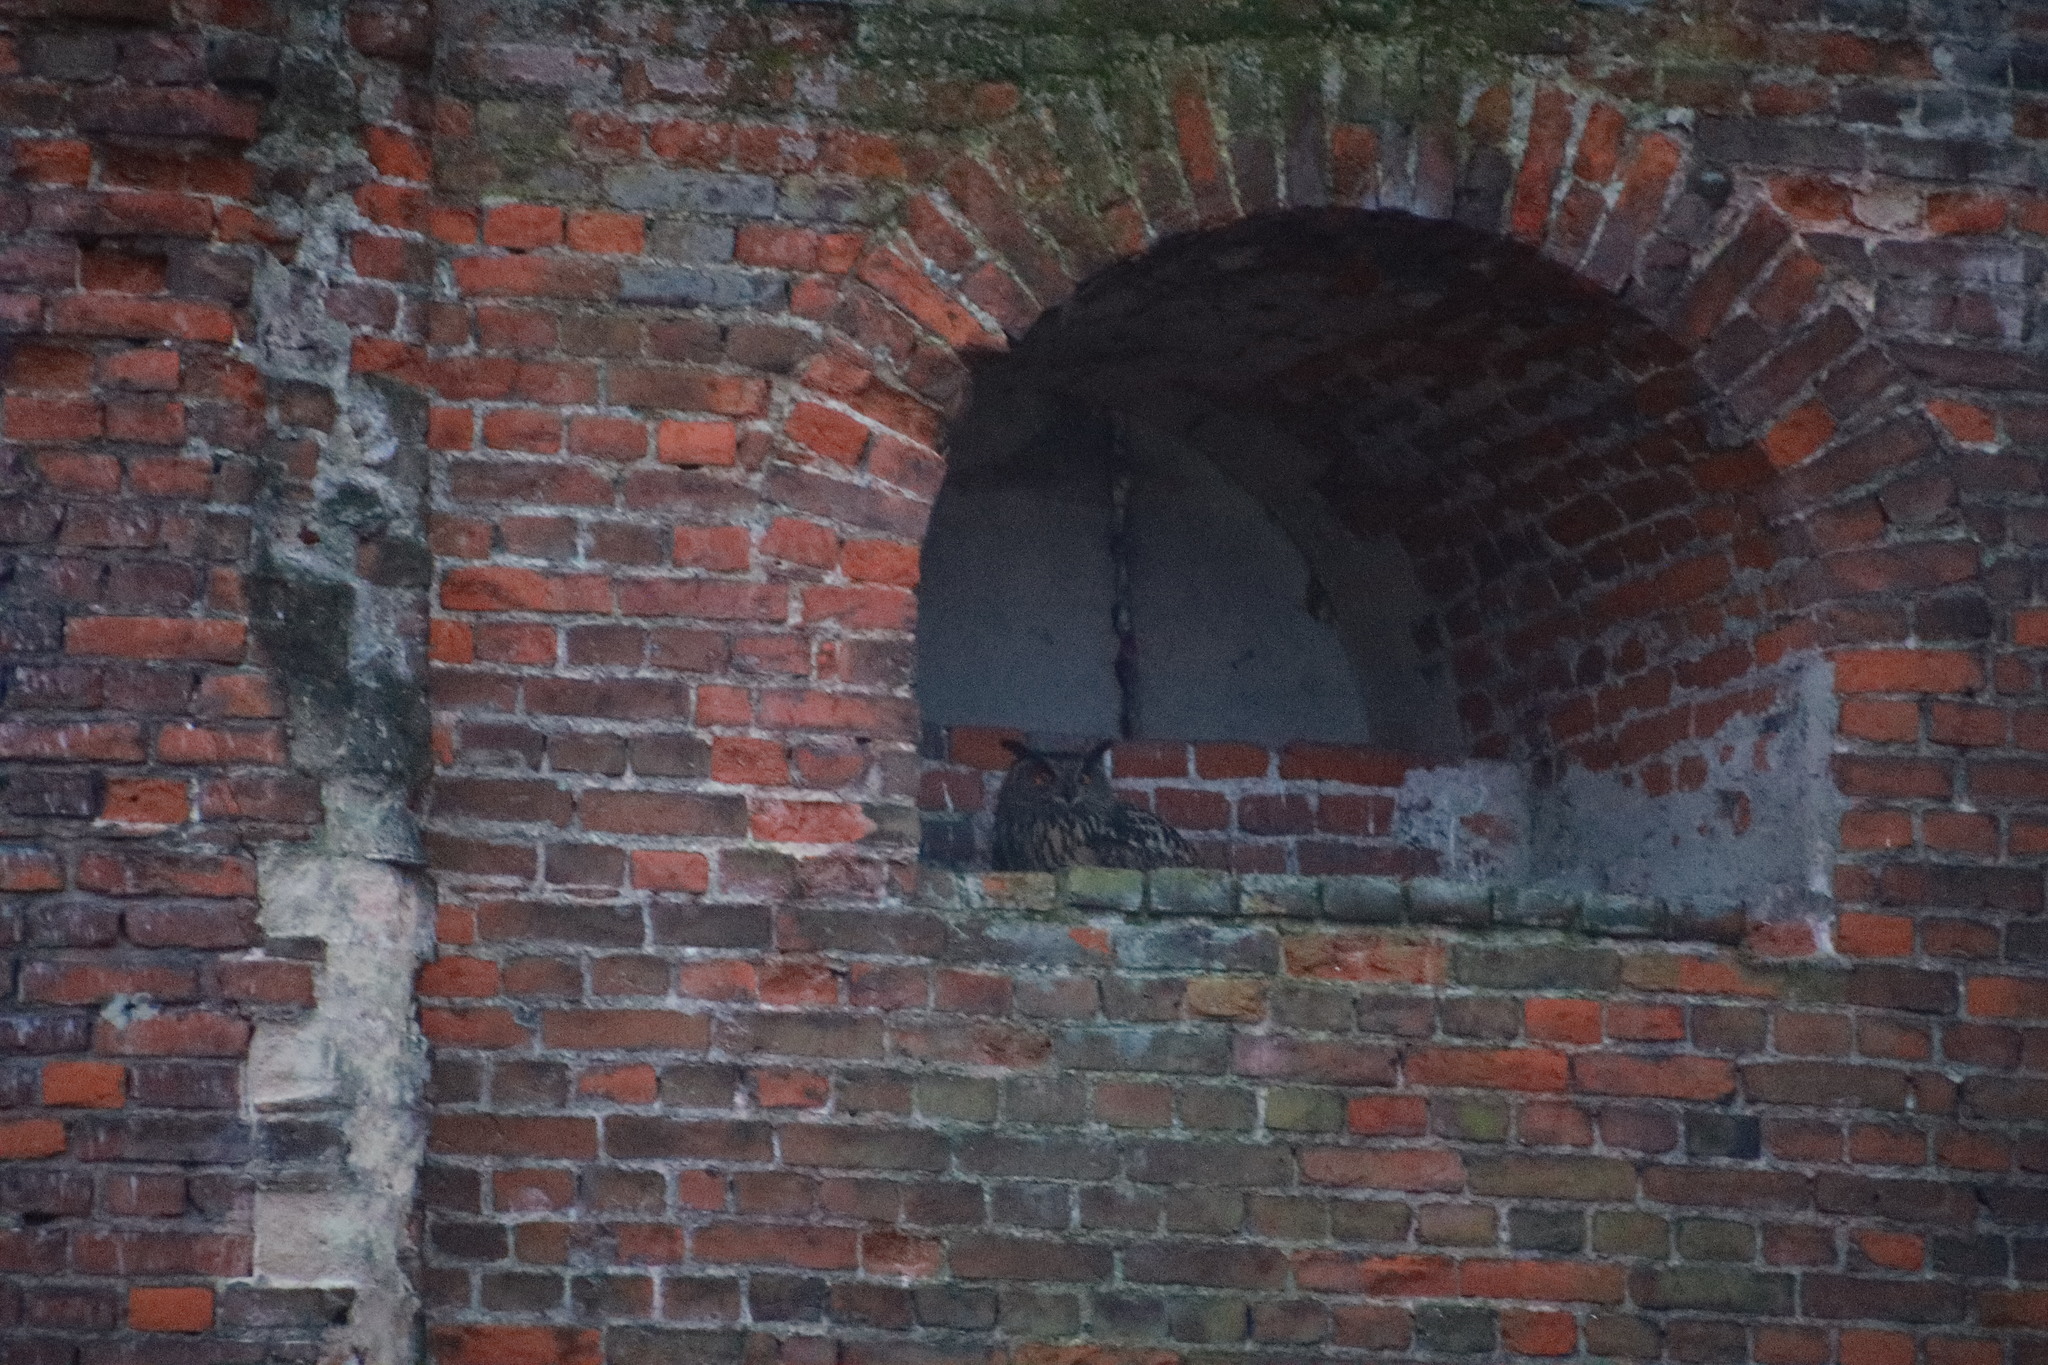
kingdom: Animalia
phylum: Chordata
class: Aves
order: Strigiformes
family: Strigidae
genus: Bubo
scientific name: Bubo bubo
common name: Eurasian eagle-owl
